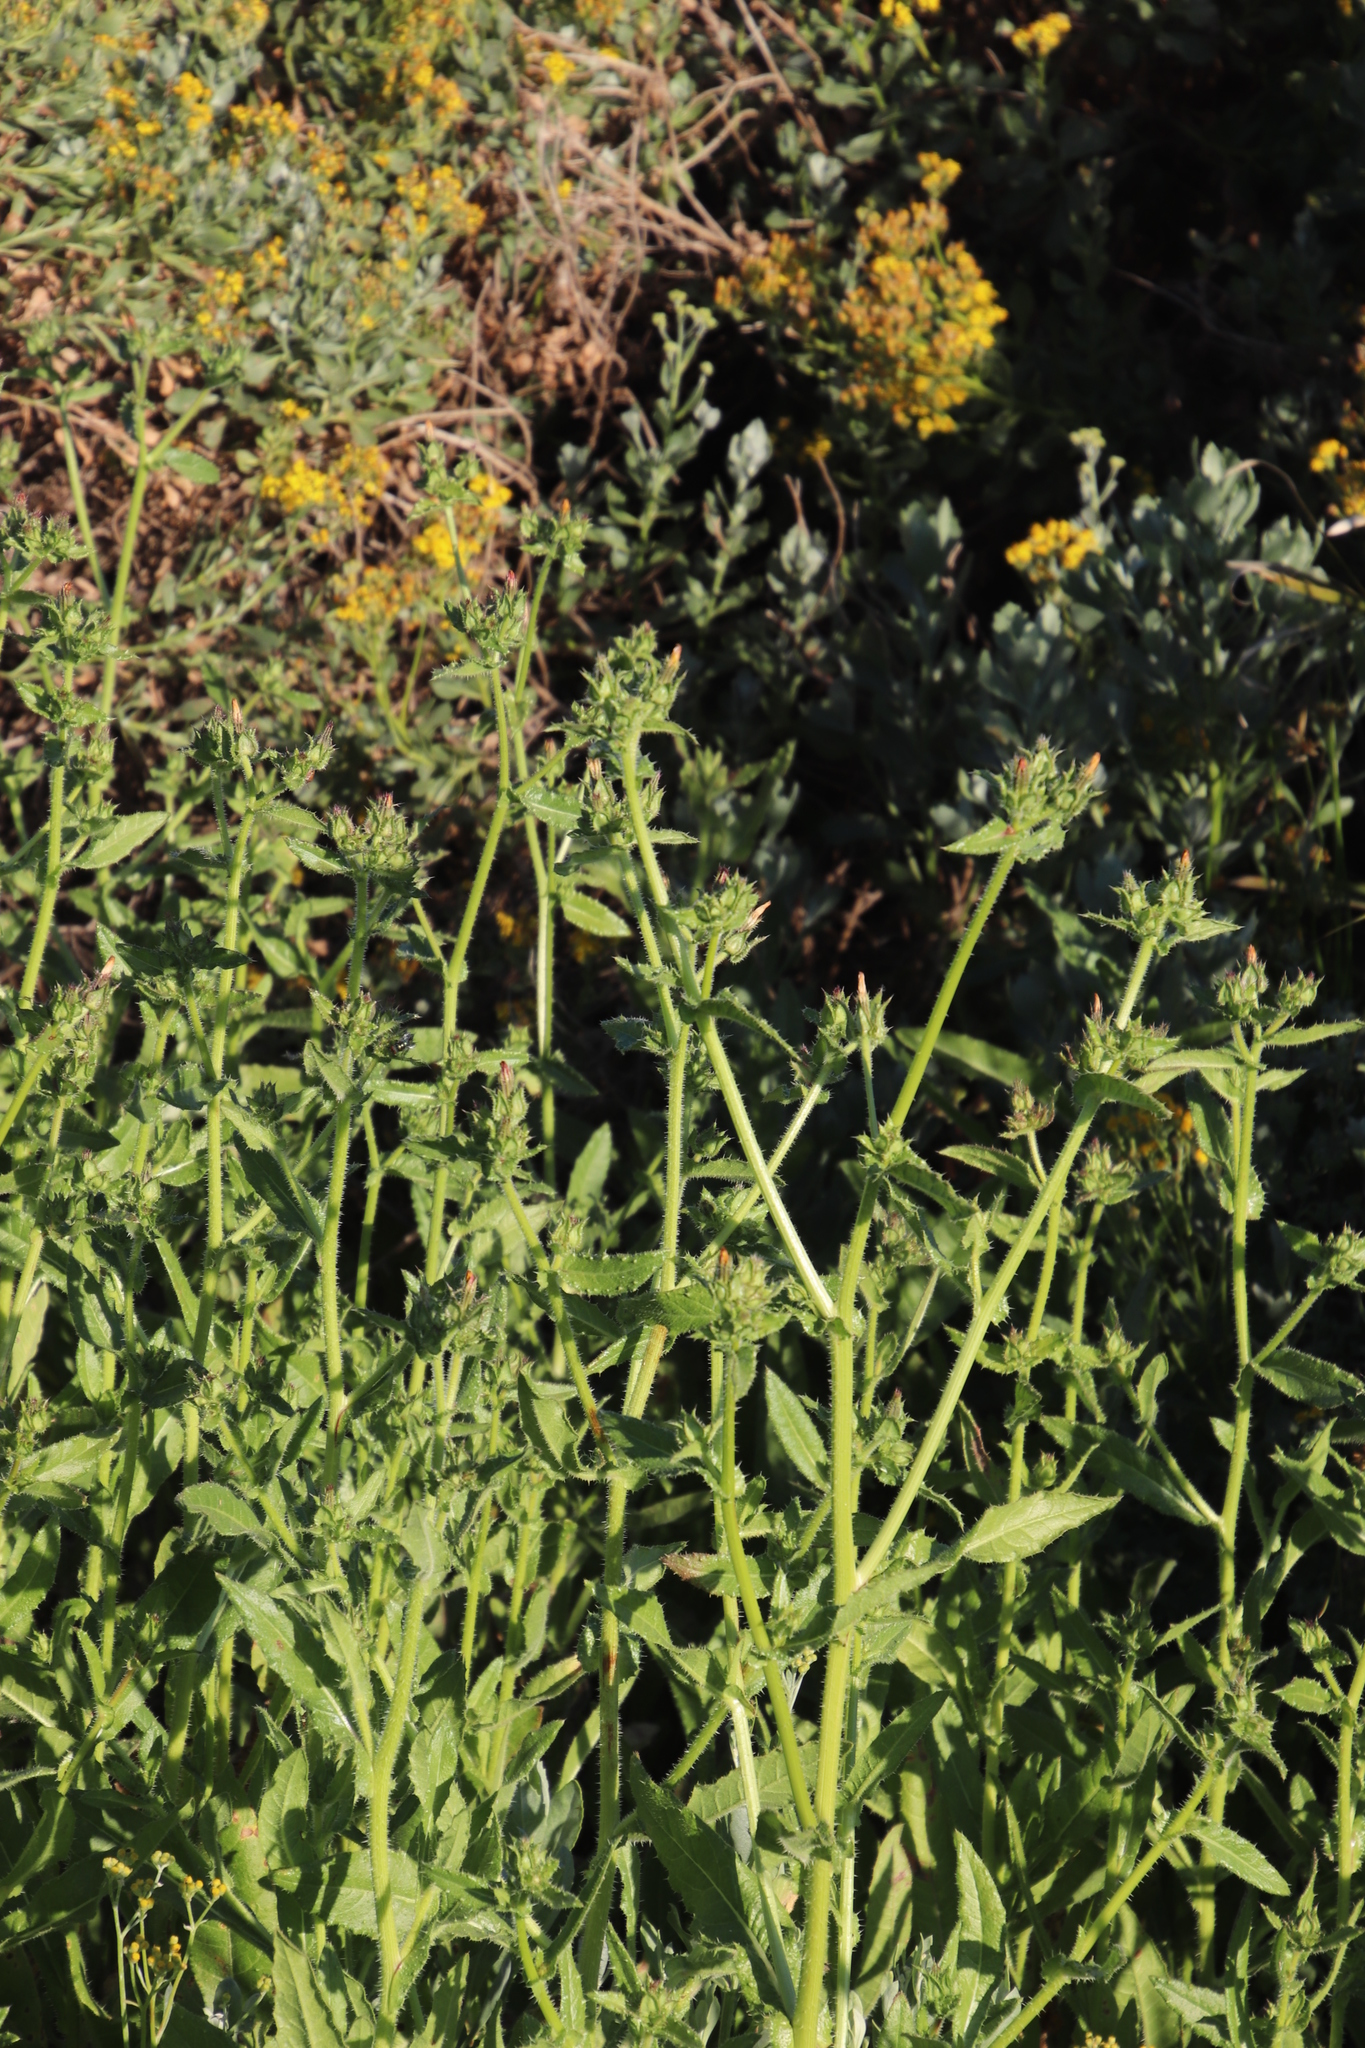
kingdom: Plantae
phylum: Tracheophyta
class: Magnoliopsida
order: Asterales
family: Asteraceae
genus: Helminthotheca
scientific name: Helminthotheca echioides
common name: Ox-tongue
